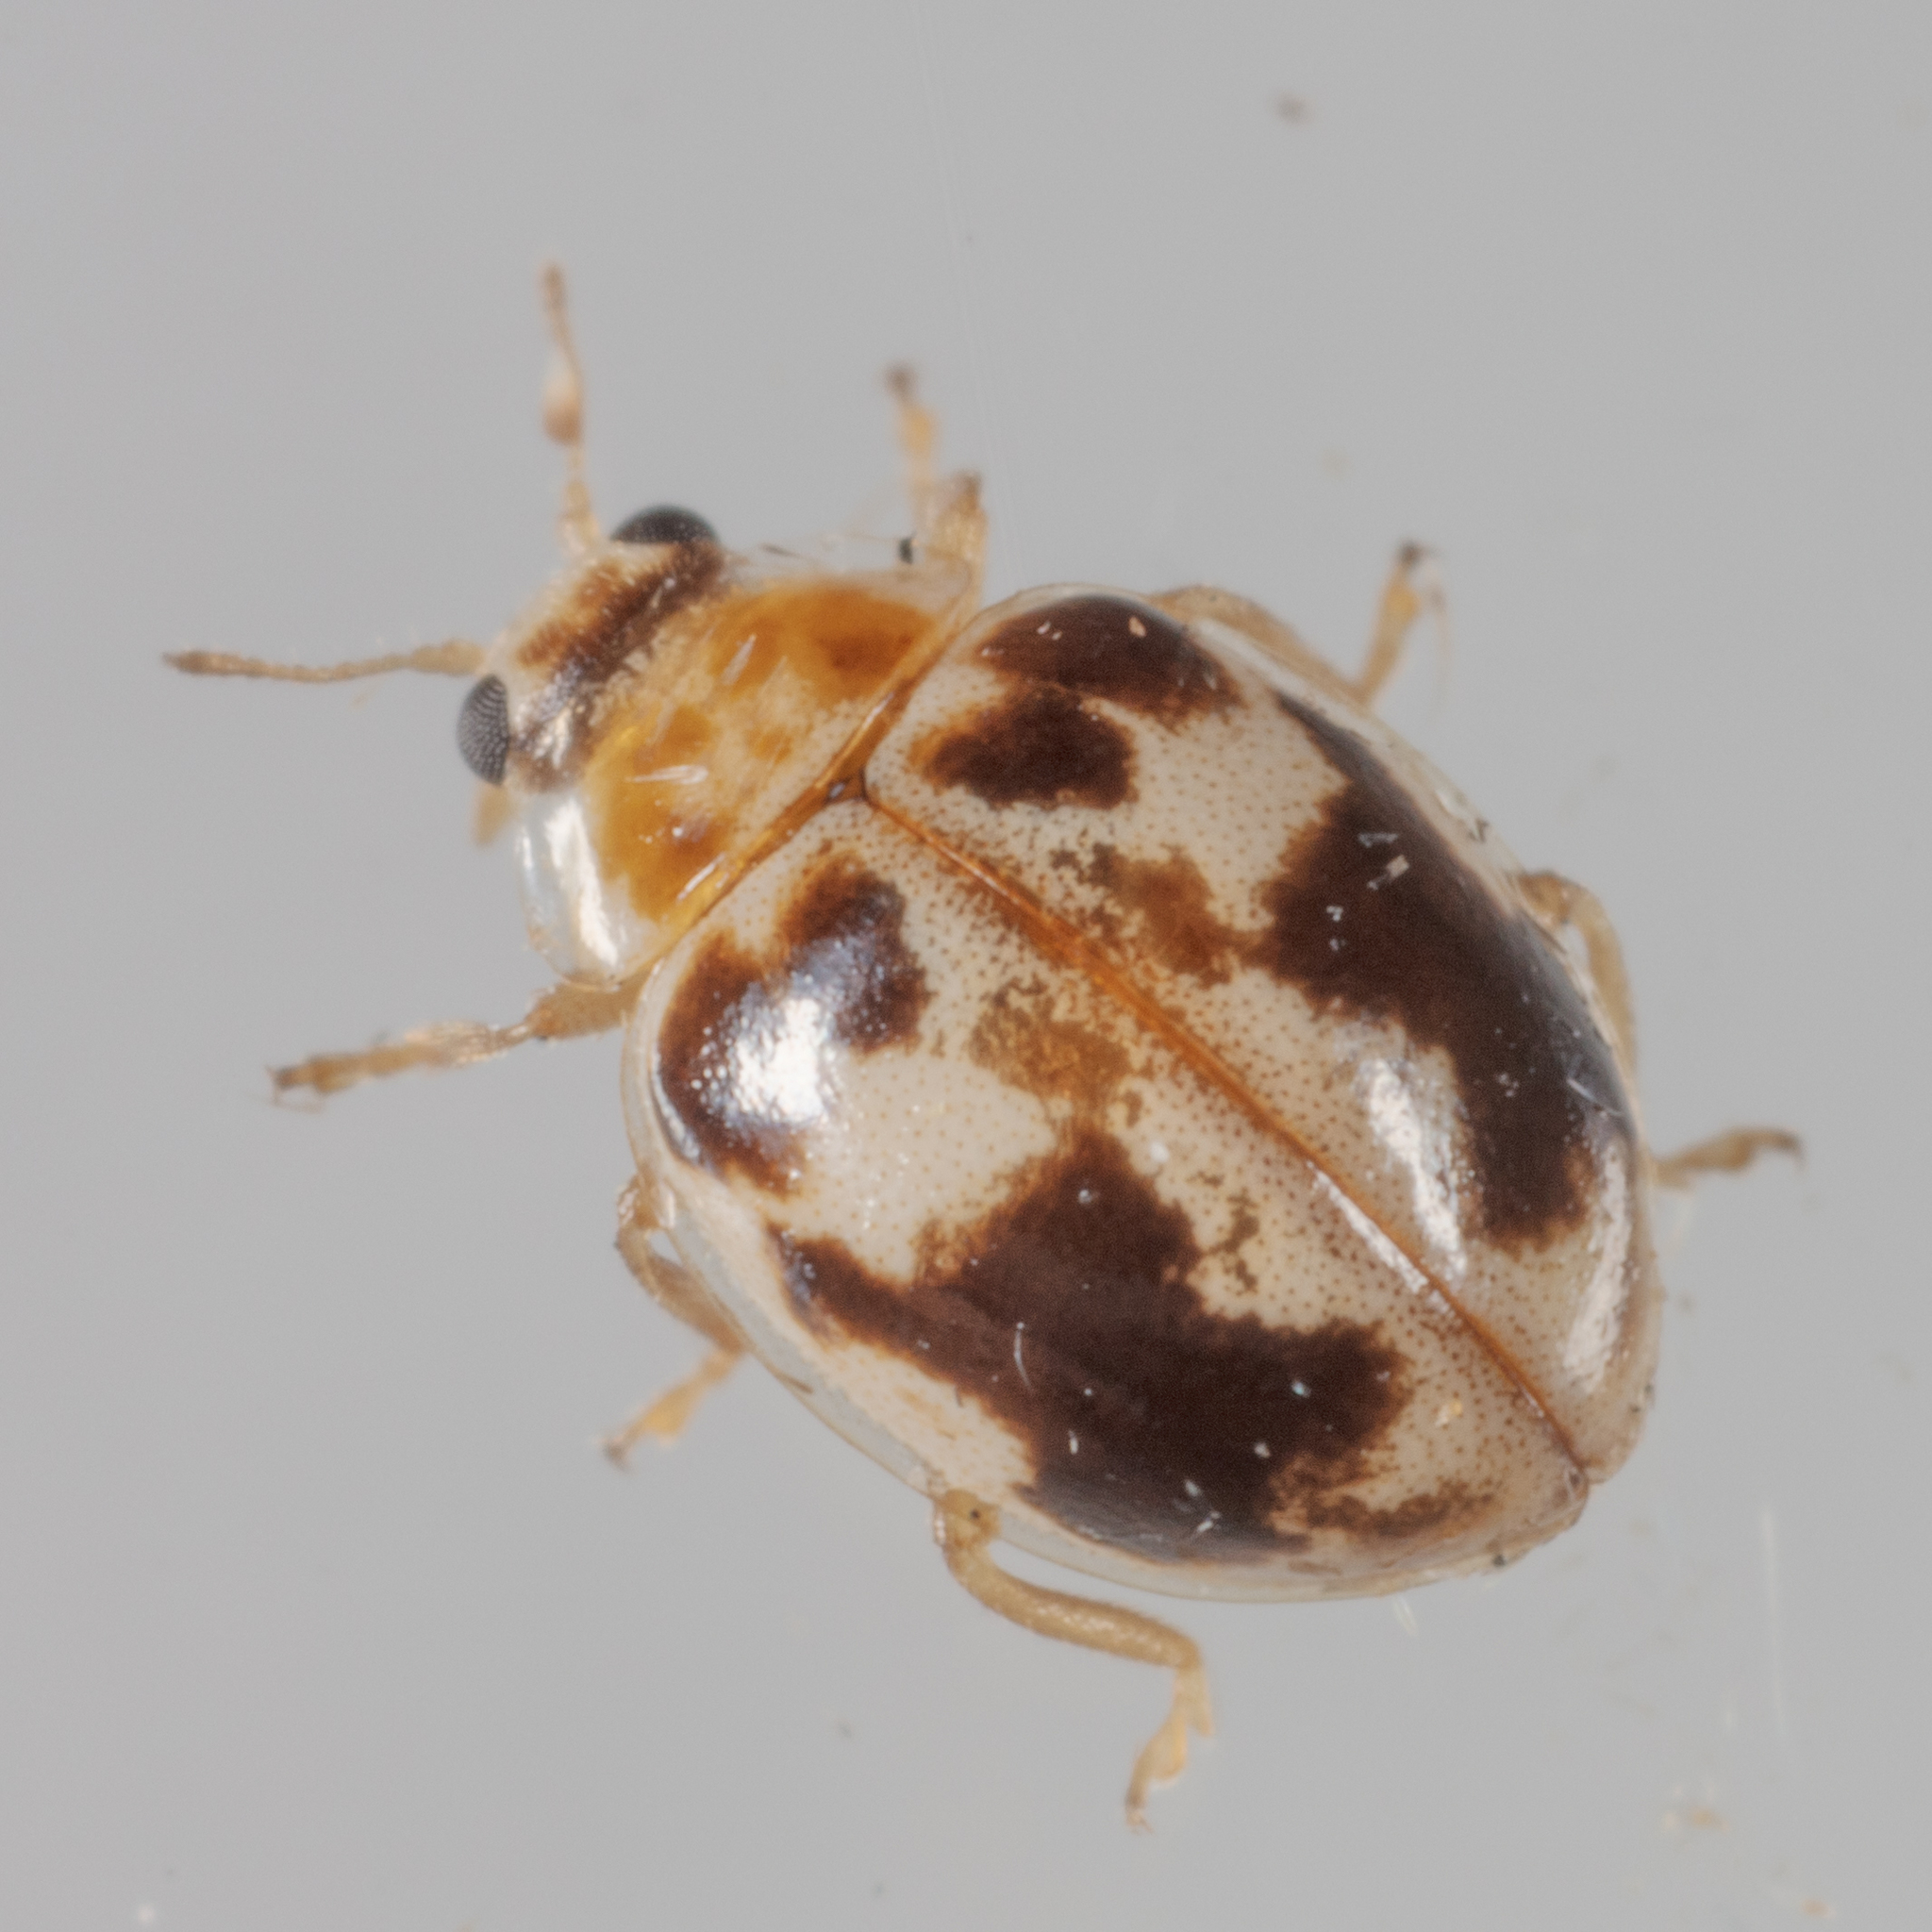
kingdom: Animalia
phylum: Arthropoda
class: Insecta
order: Coleoptera
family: Coccinellidae
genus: Psyllobora
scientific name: Psyllobora renifer
